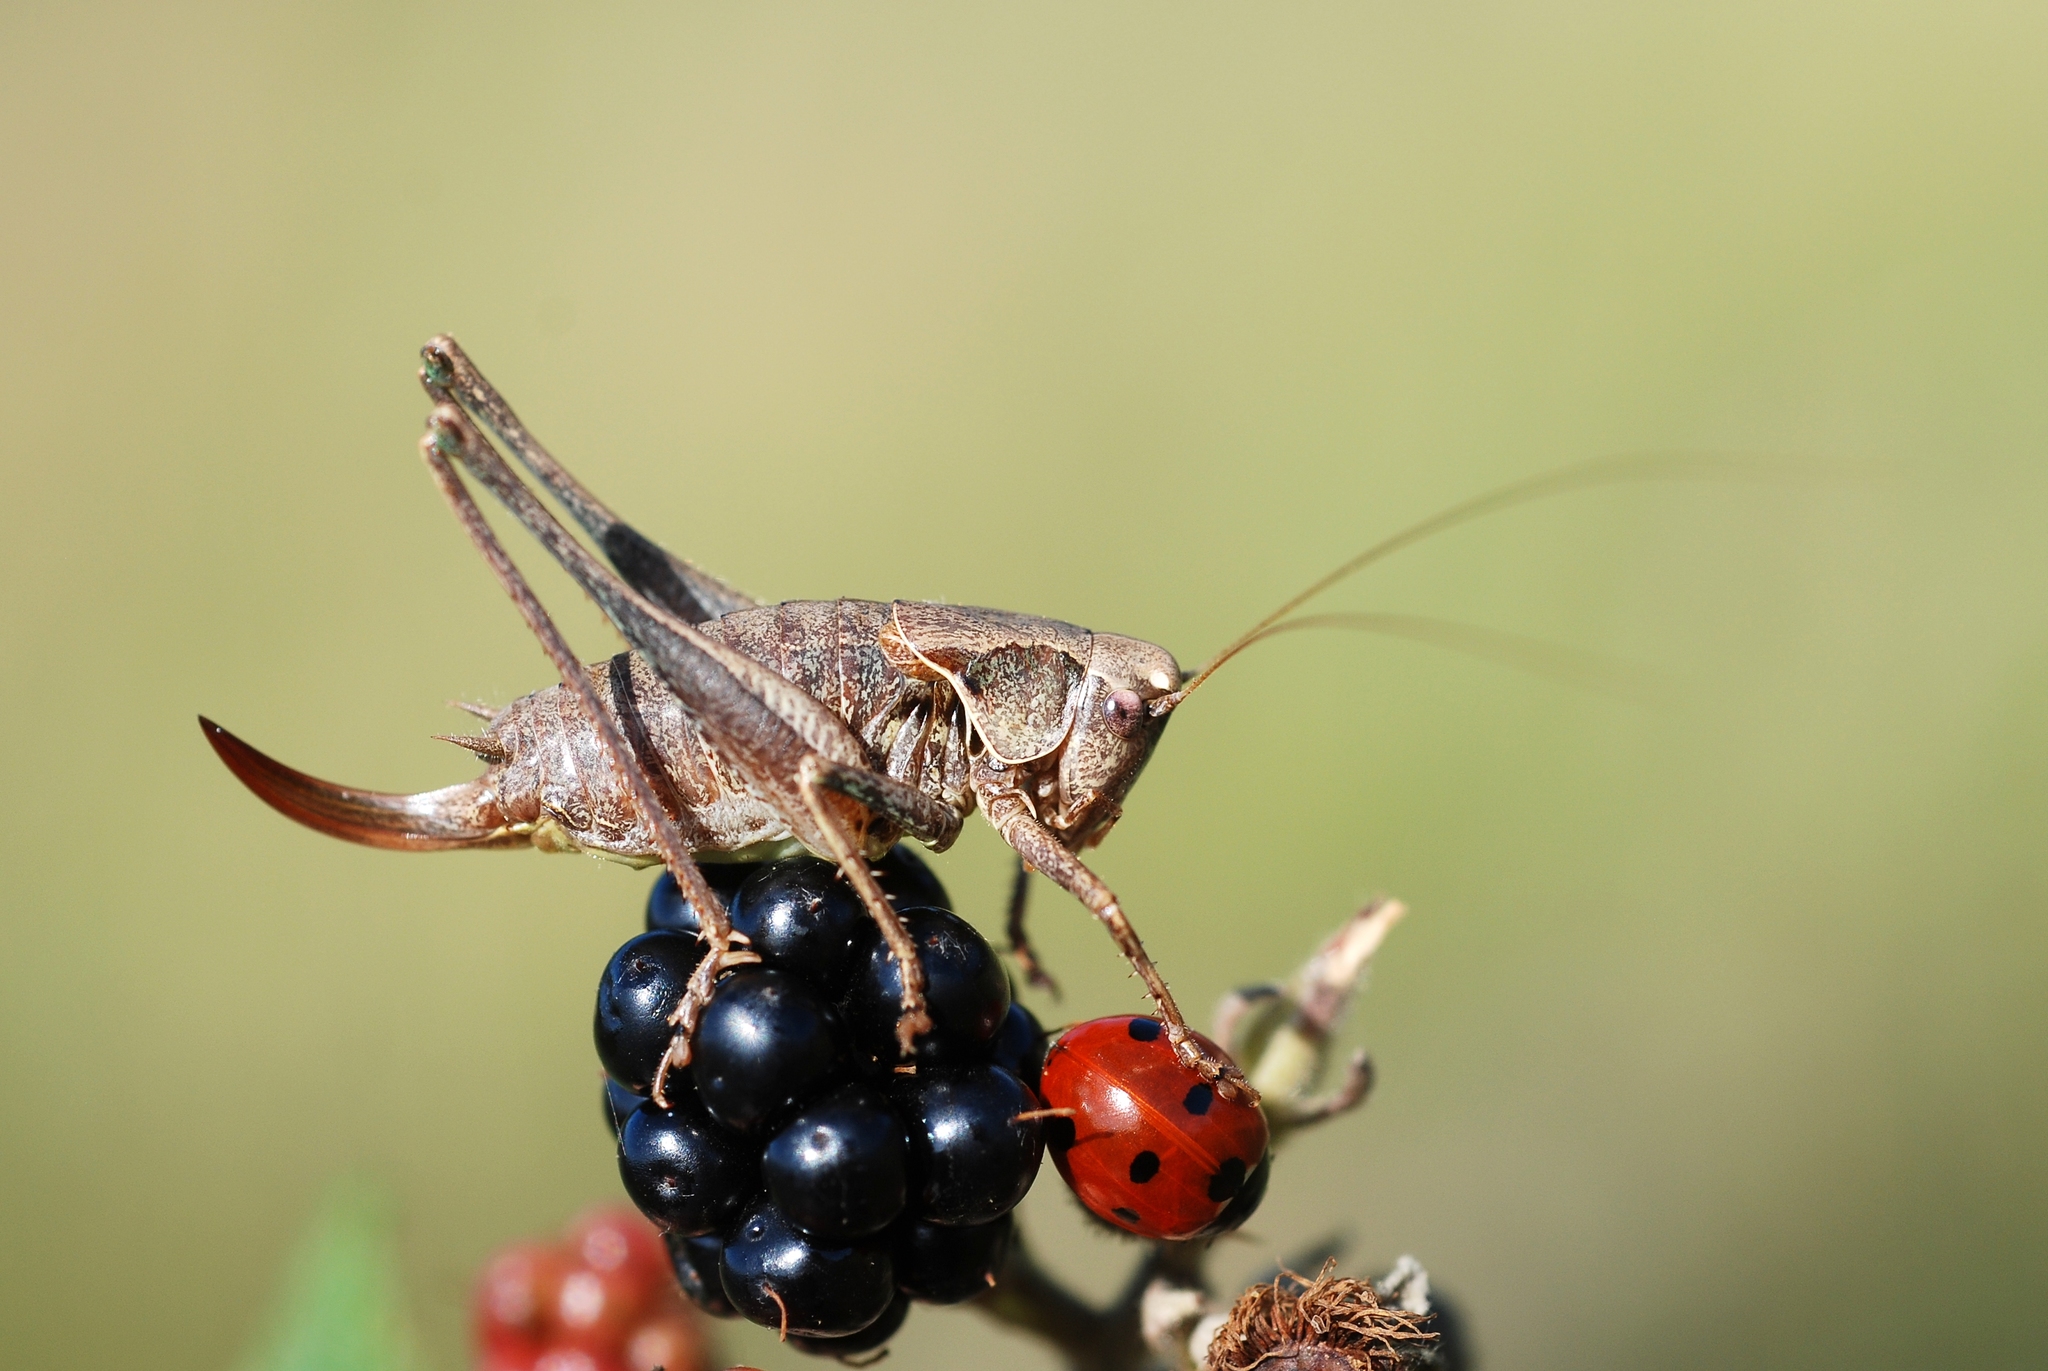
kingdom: Animalia
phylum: Arthropoda
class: Insecta
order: Orthoptera
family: Tettigoniidae
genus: Pholidoptera
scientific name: Pholidoptera griseoaptera
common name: Dark bush-cricket
